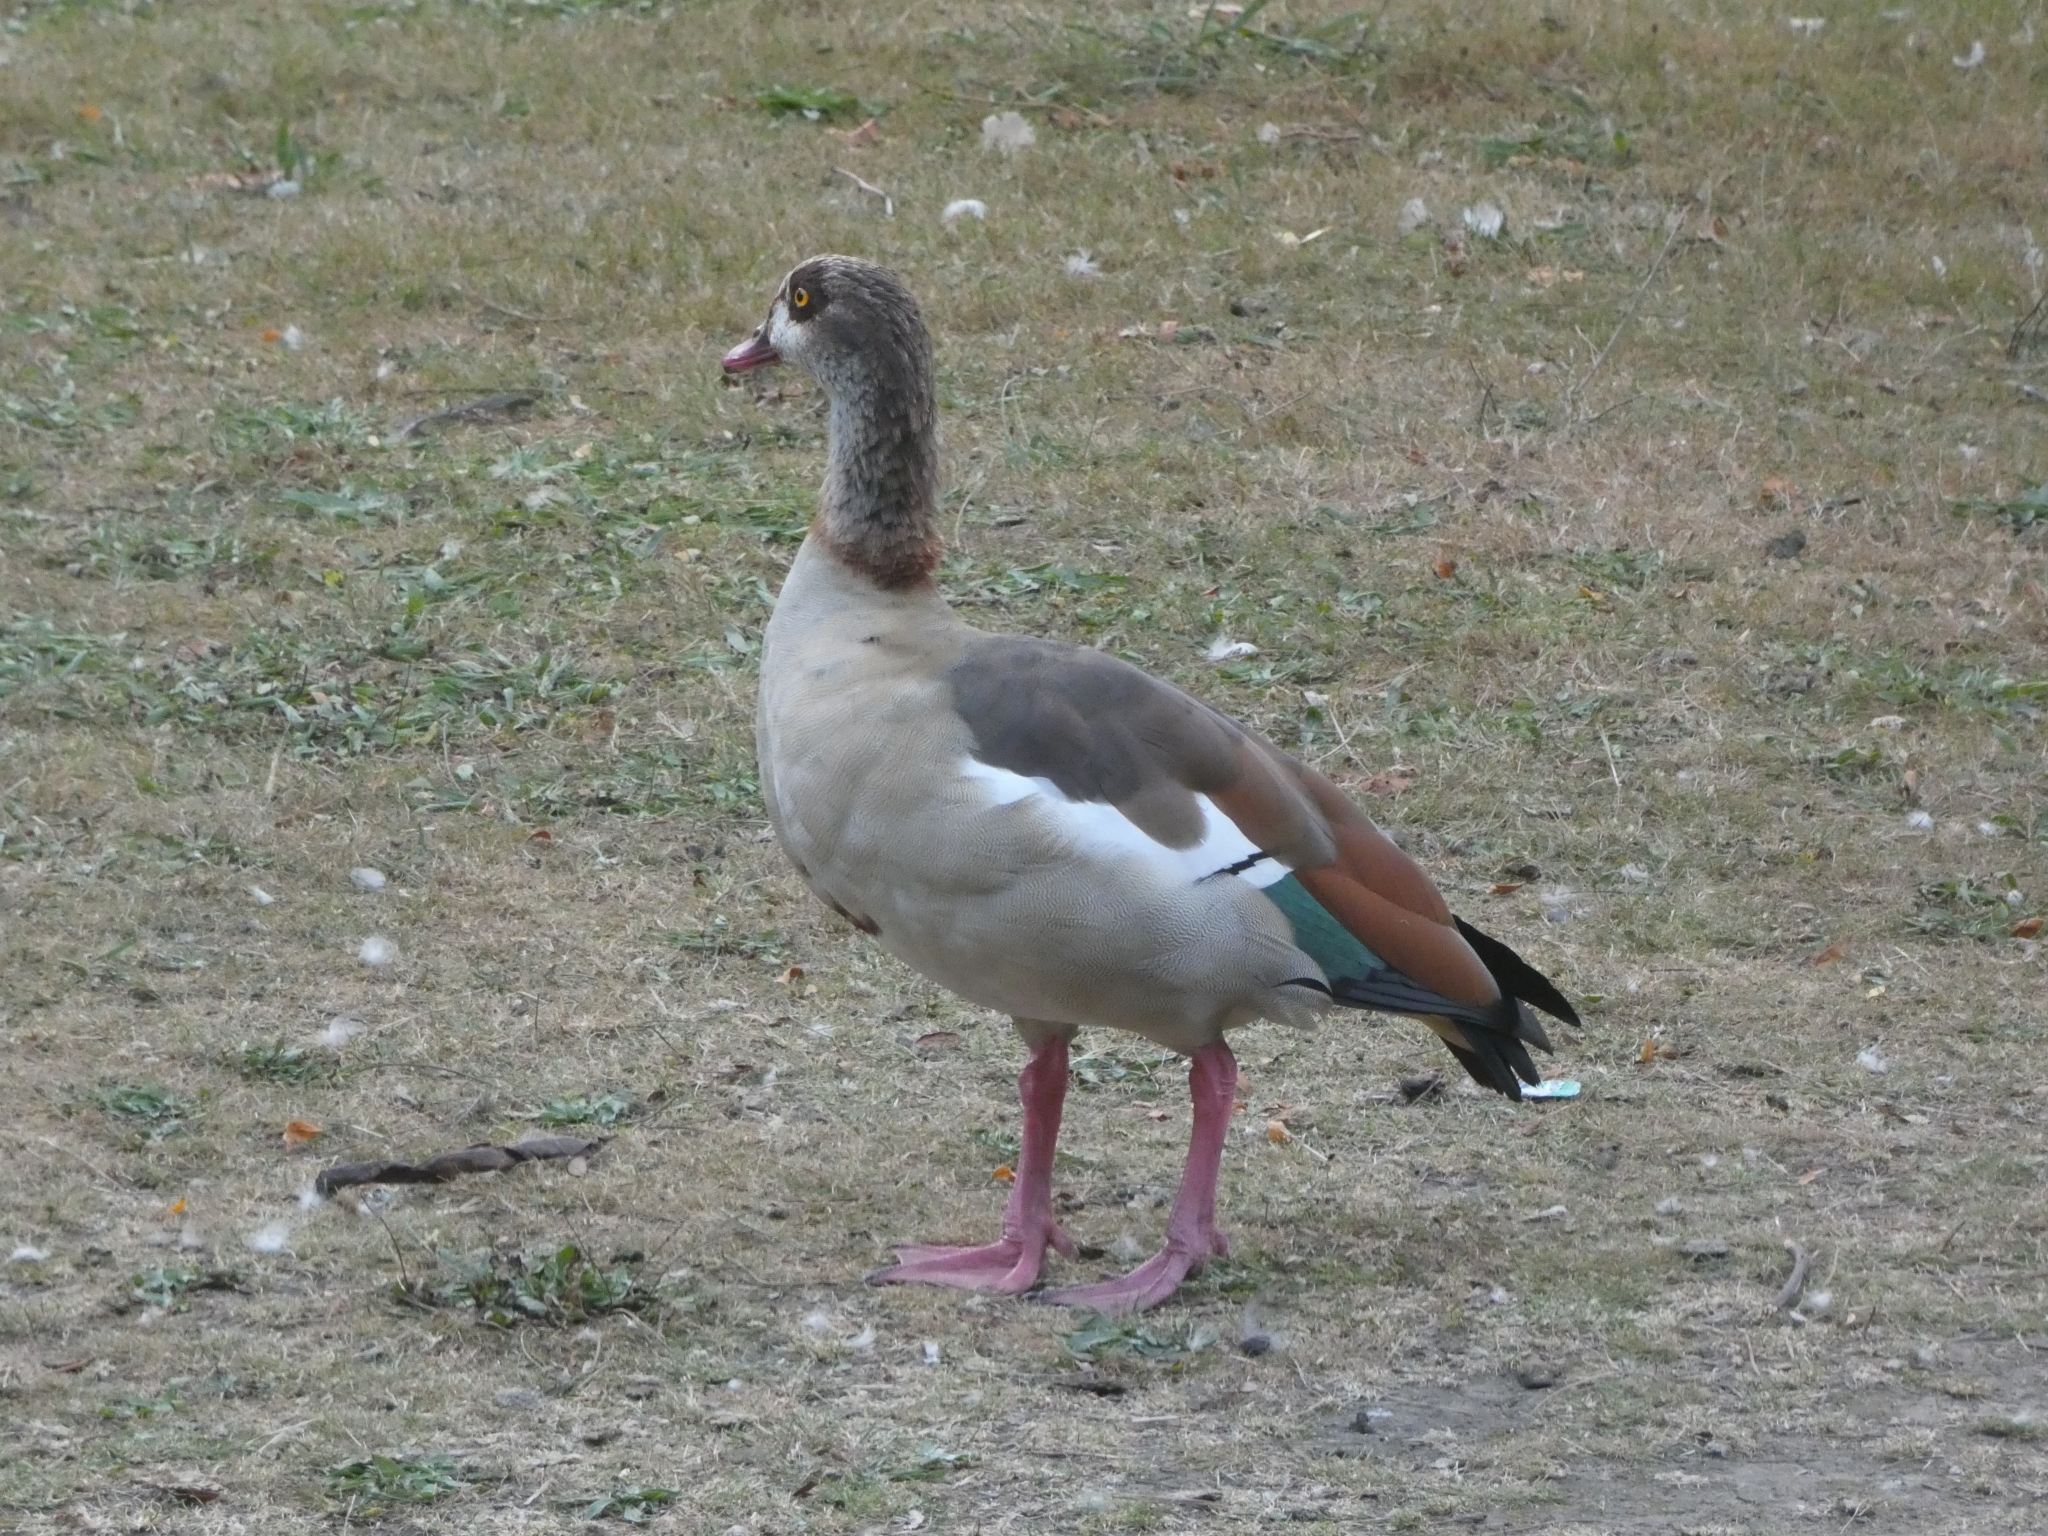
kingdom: Animalia
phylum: Chordata
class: Aves
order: Anseriformes
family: Anatidae
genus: Alopochen
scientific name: Alopochen aegyptiaca
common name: Egyptian goose
